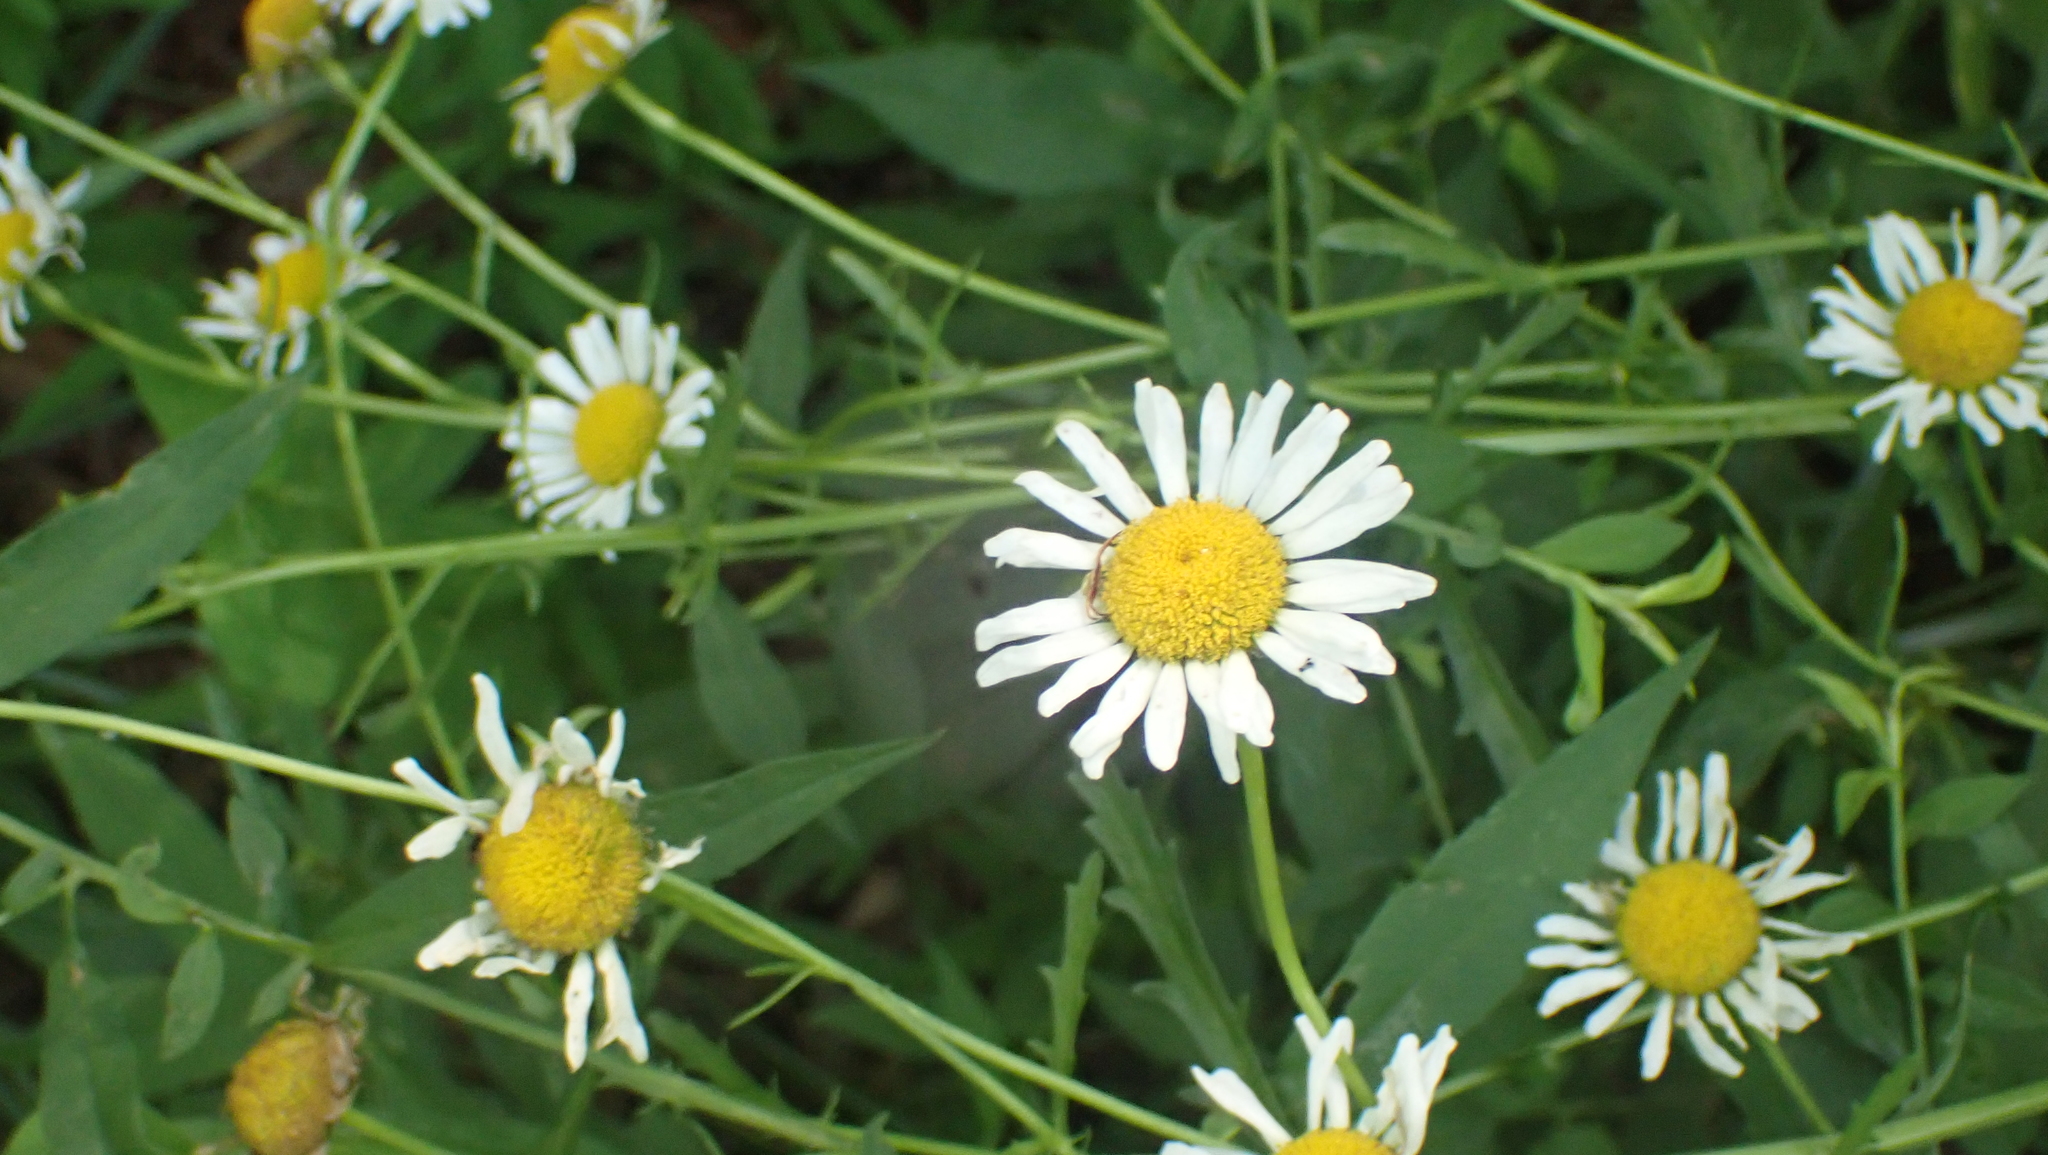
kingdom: Plantae
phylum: Tracheophyta
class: Magnoliopsida
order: Asterales
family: Asteraceae
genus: Leucanthemum
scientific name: Leucanthemum vulgare
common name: Oxeye daisy
